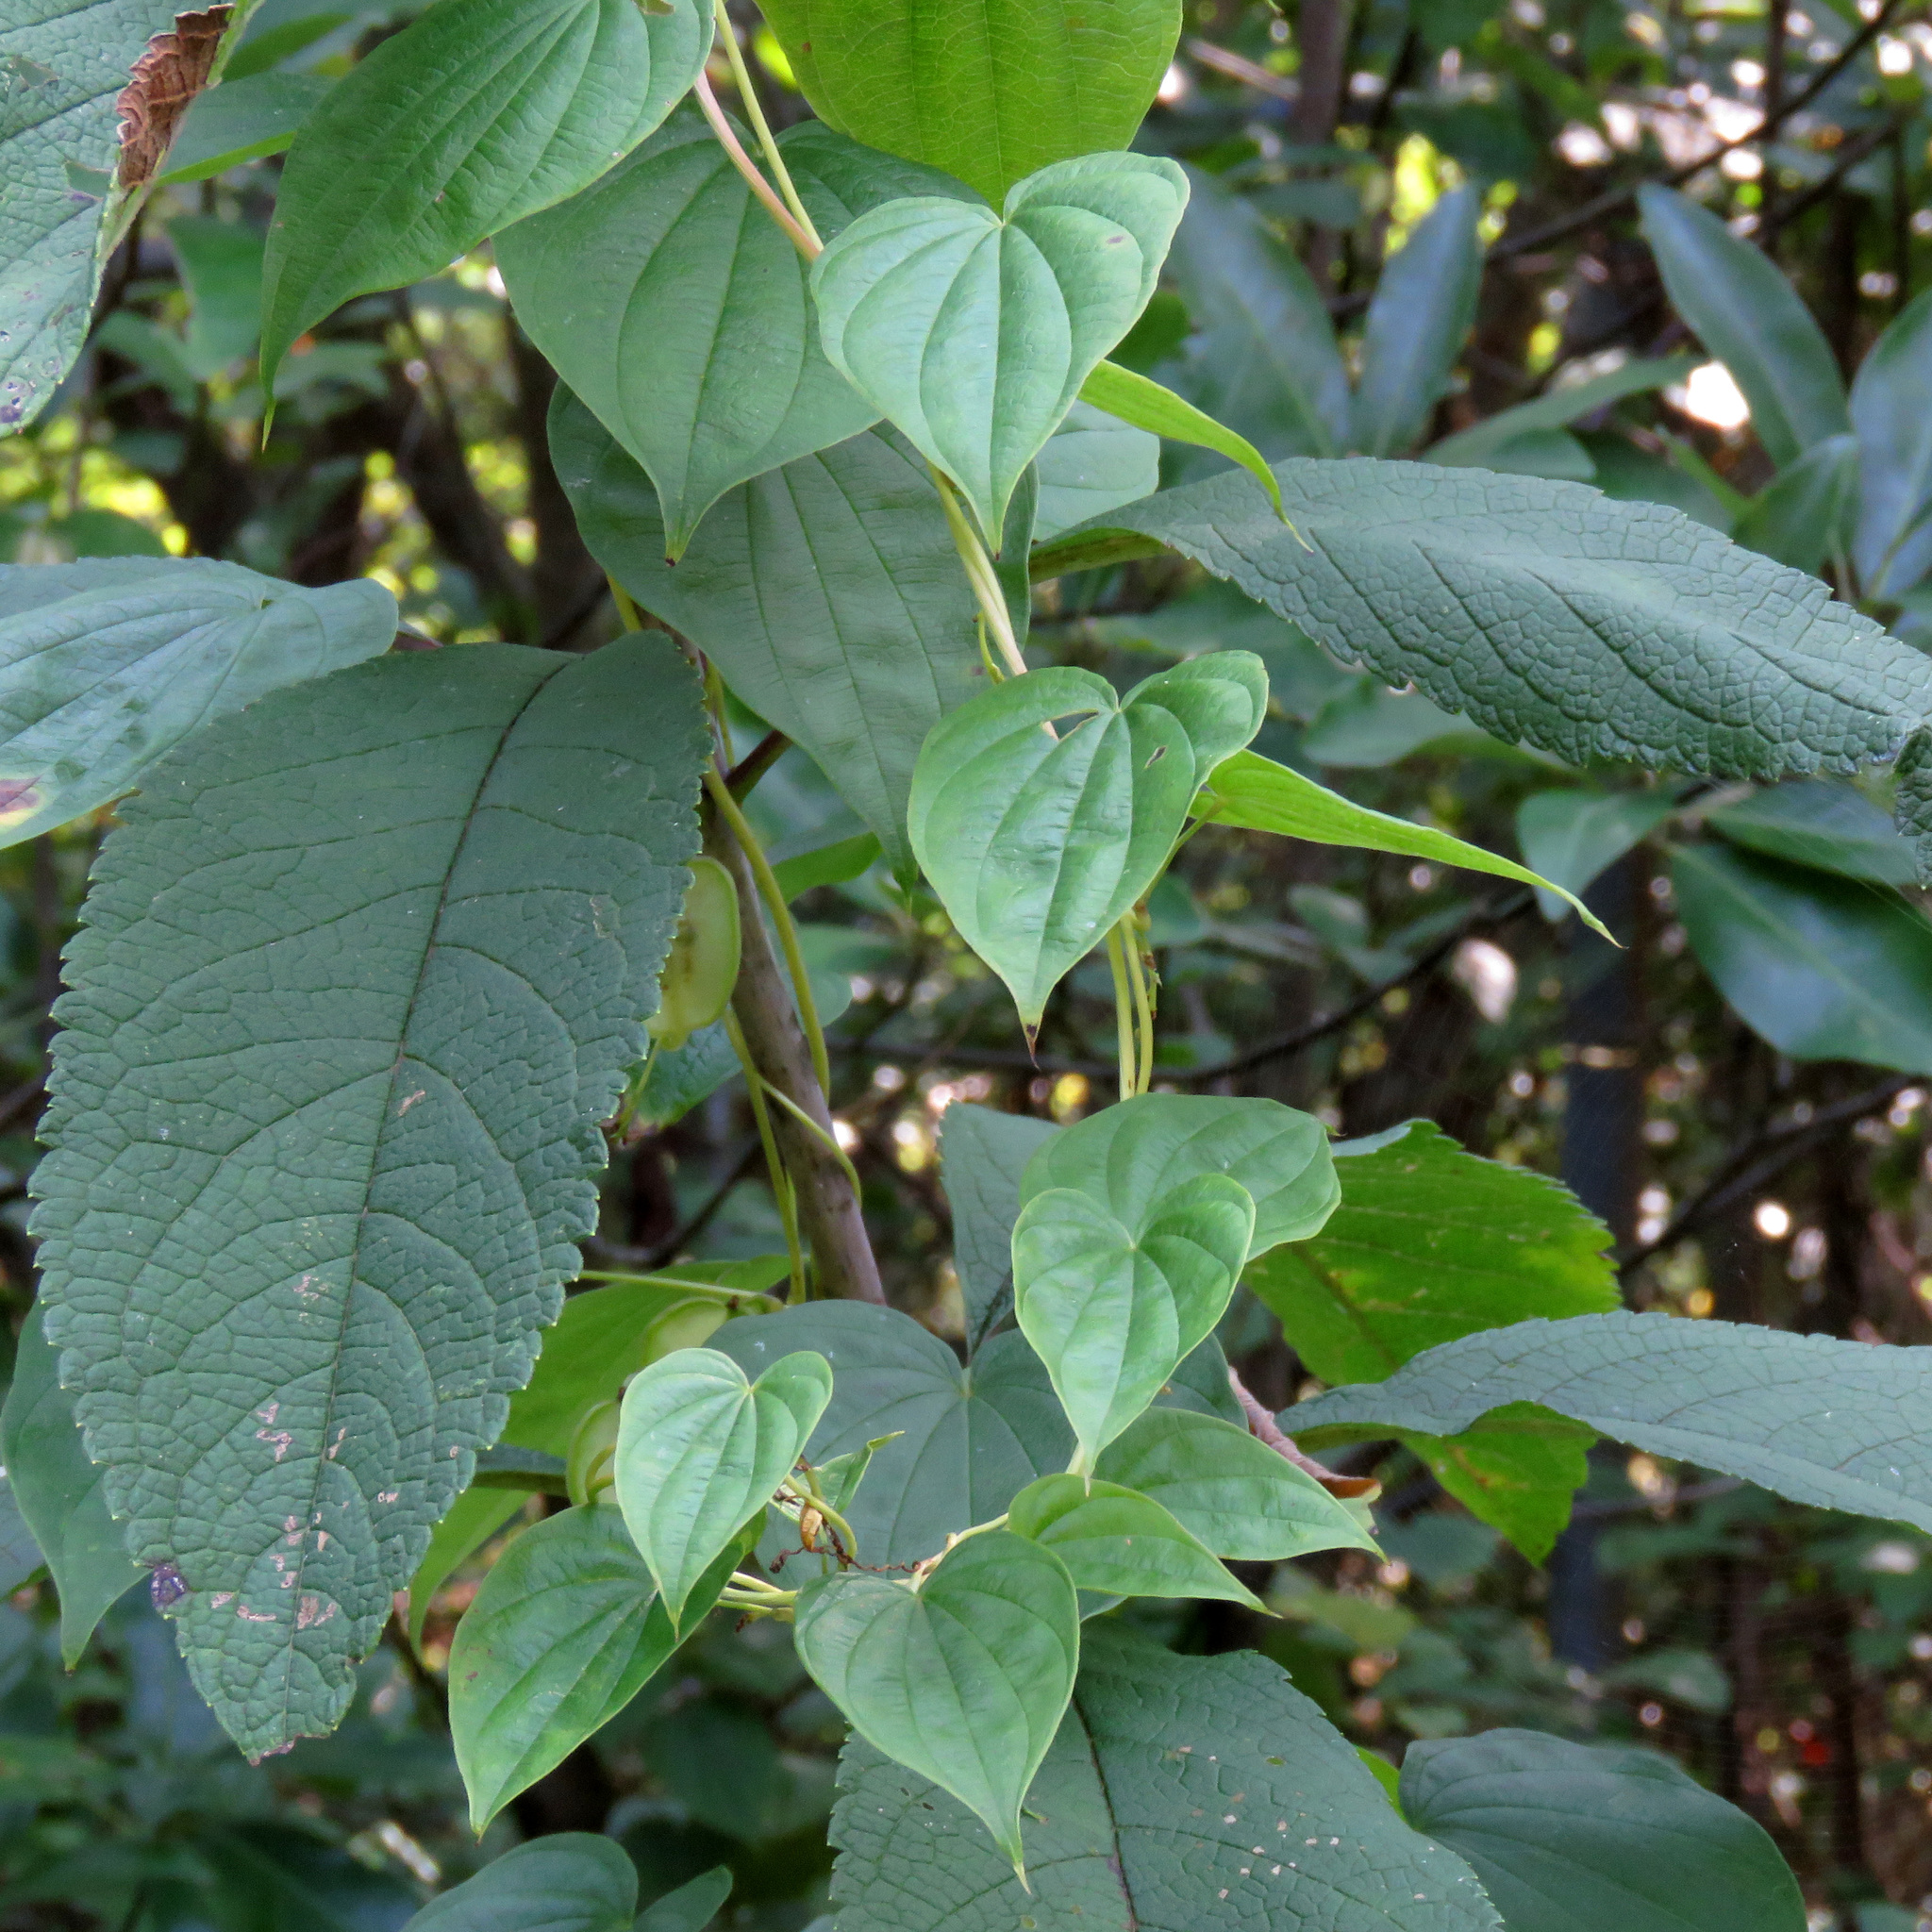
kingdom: Plantae
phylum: Tracheophyta
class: Liliopsida
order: Dioscoreales
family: Dioscoreaceae
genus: Dioscorea
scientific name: Dioscorea villosa
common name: Wild yam
